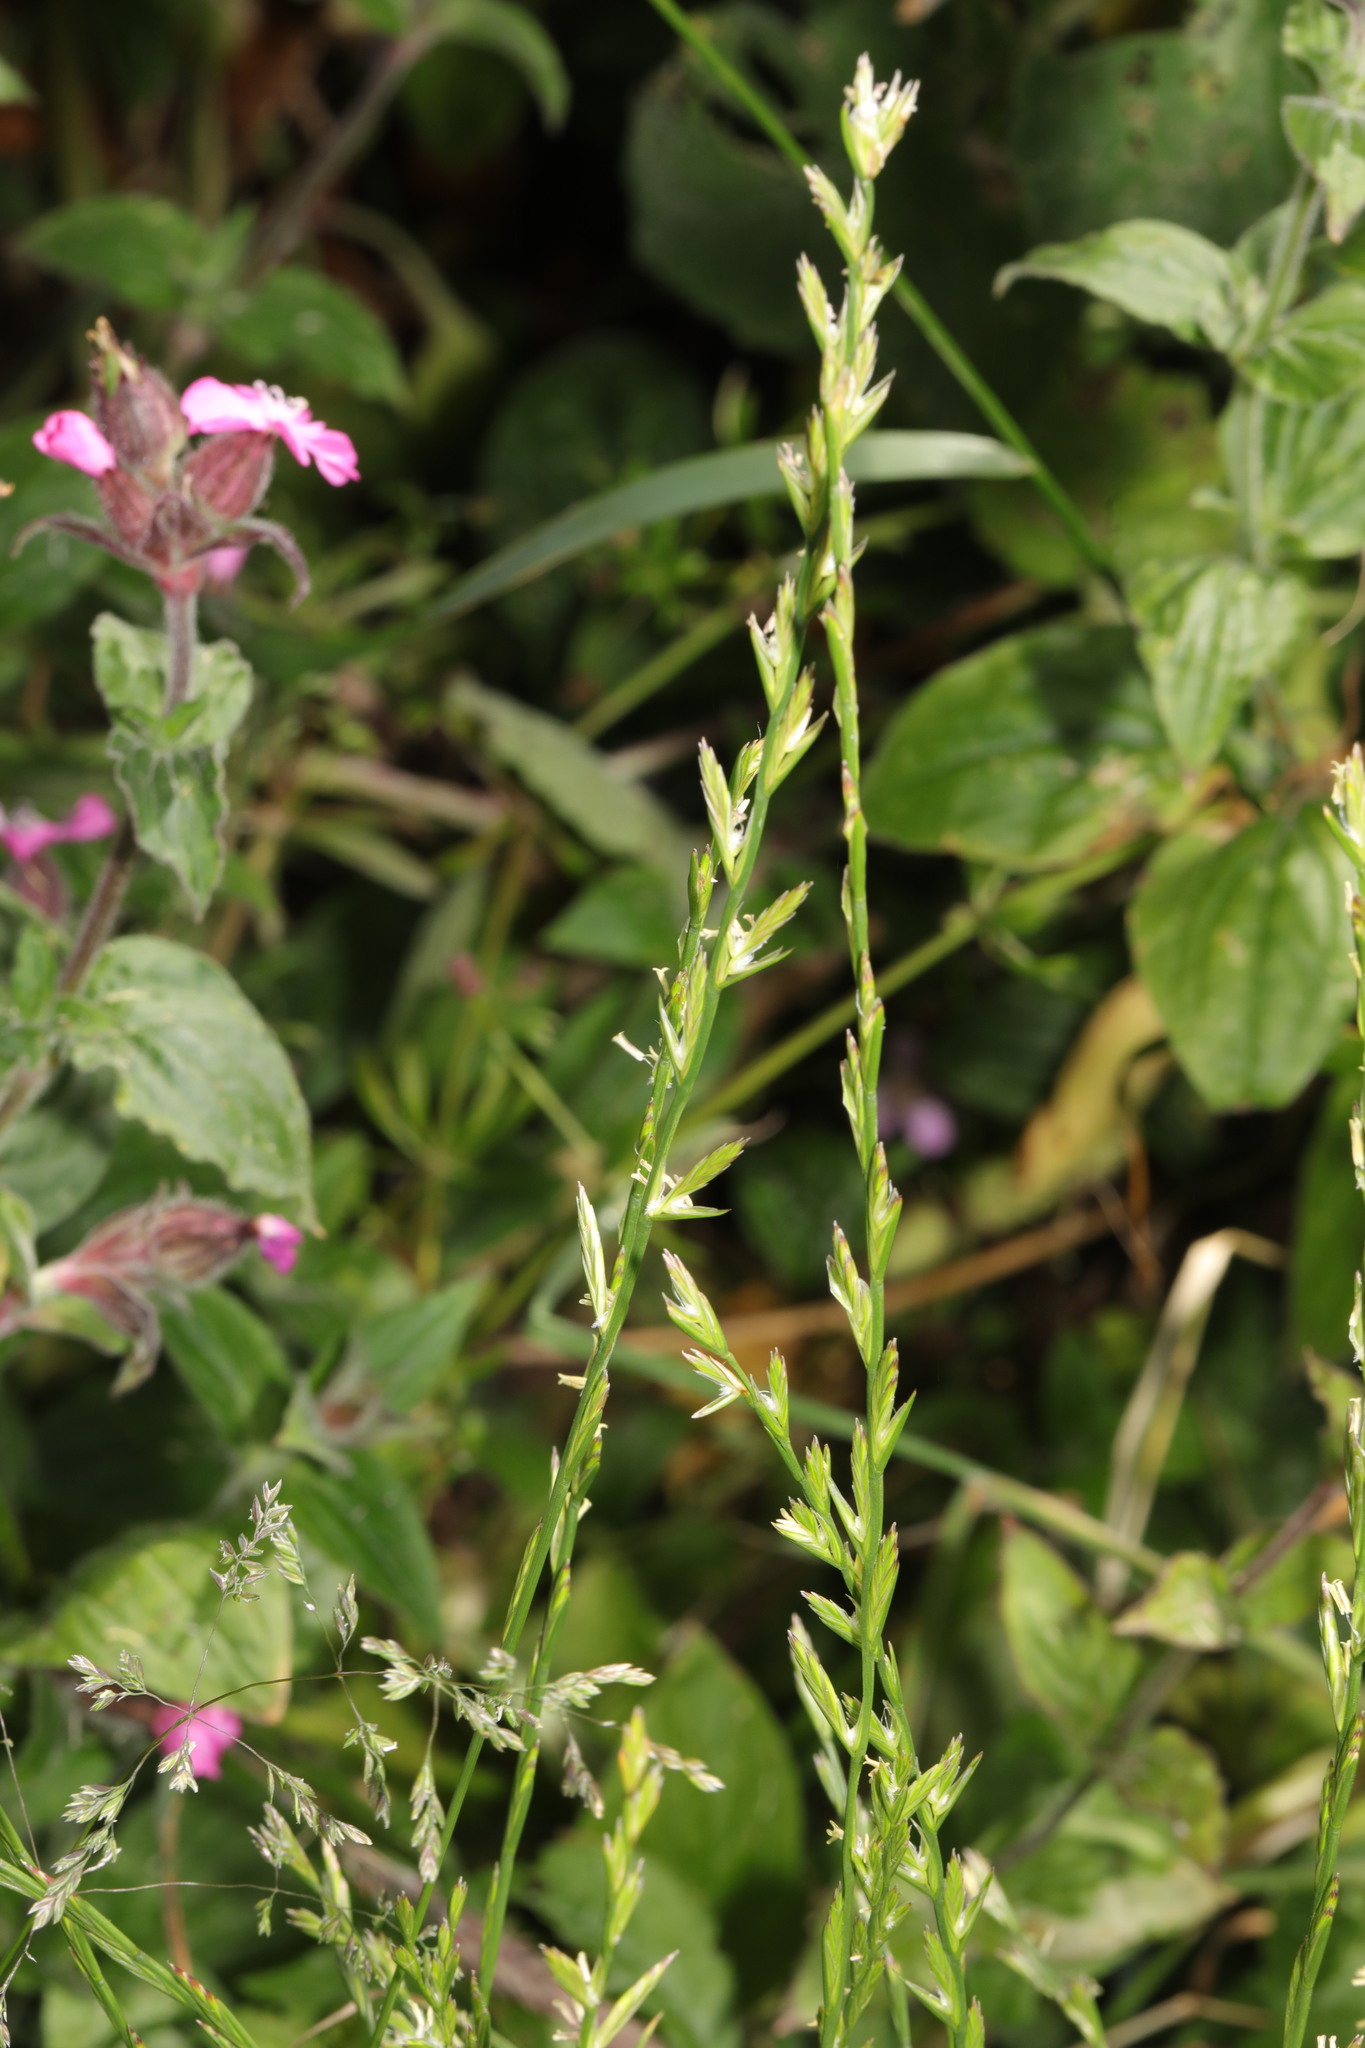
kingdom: Plantae
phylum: Tracheophyta
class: Liliopsida
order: Poales
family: Poaceae
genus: Lolium
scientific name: Lolium perenne
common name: Perennial ryegrass
